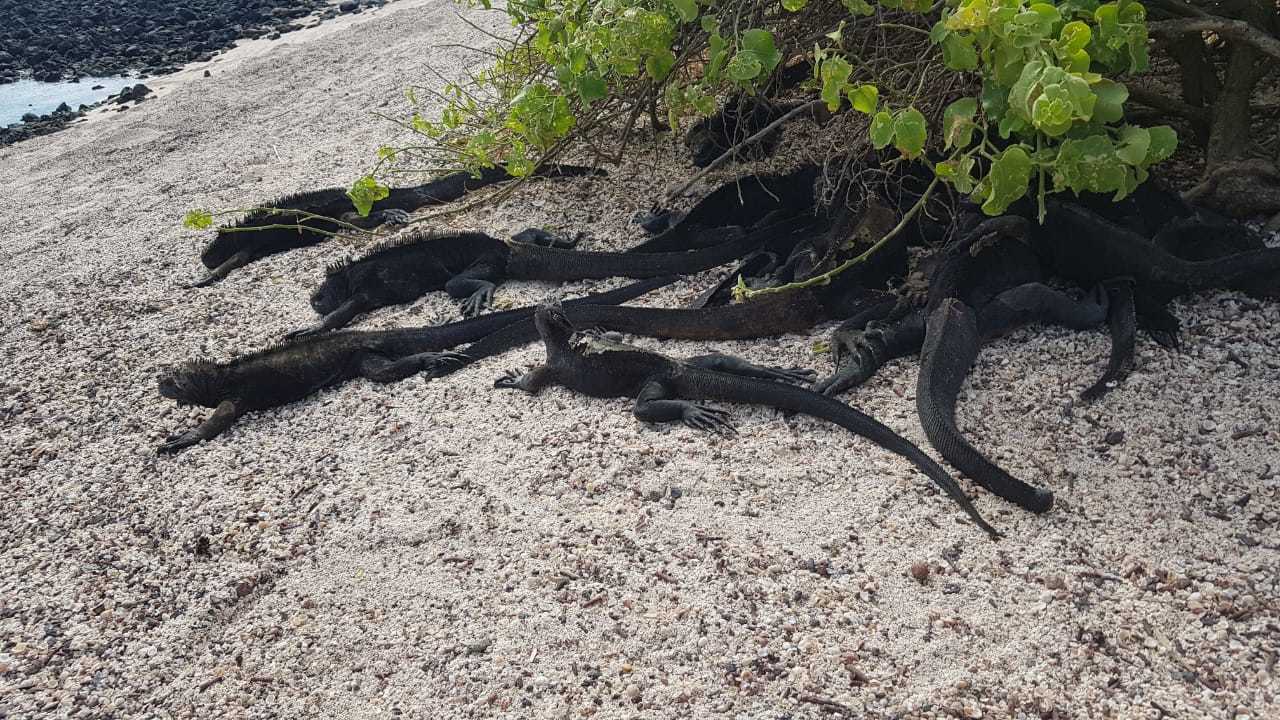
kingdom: Animalia
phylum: Chordata
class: Squamata
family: Iguanidae
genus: Amblyrhynchus
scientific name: Amblyrhynchus cristatus
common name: Marine iguana
